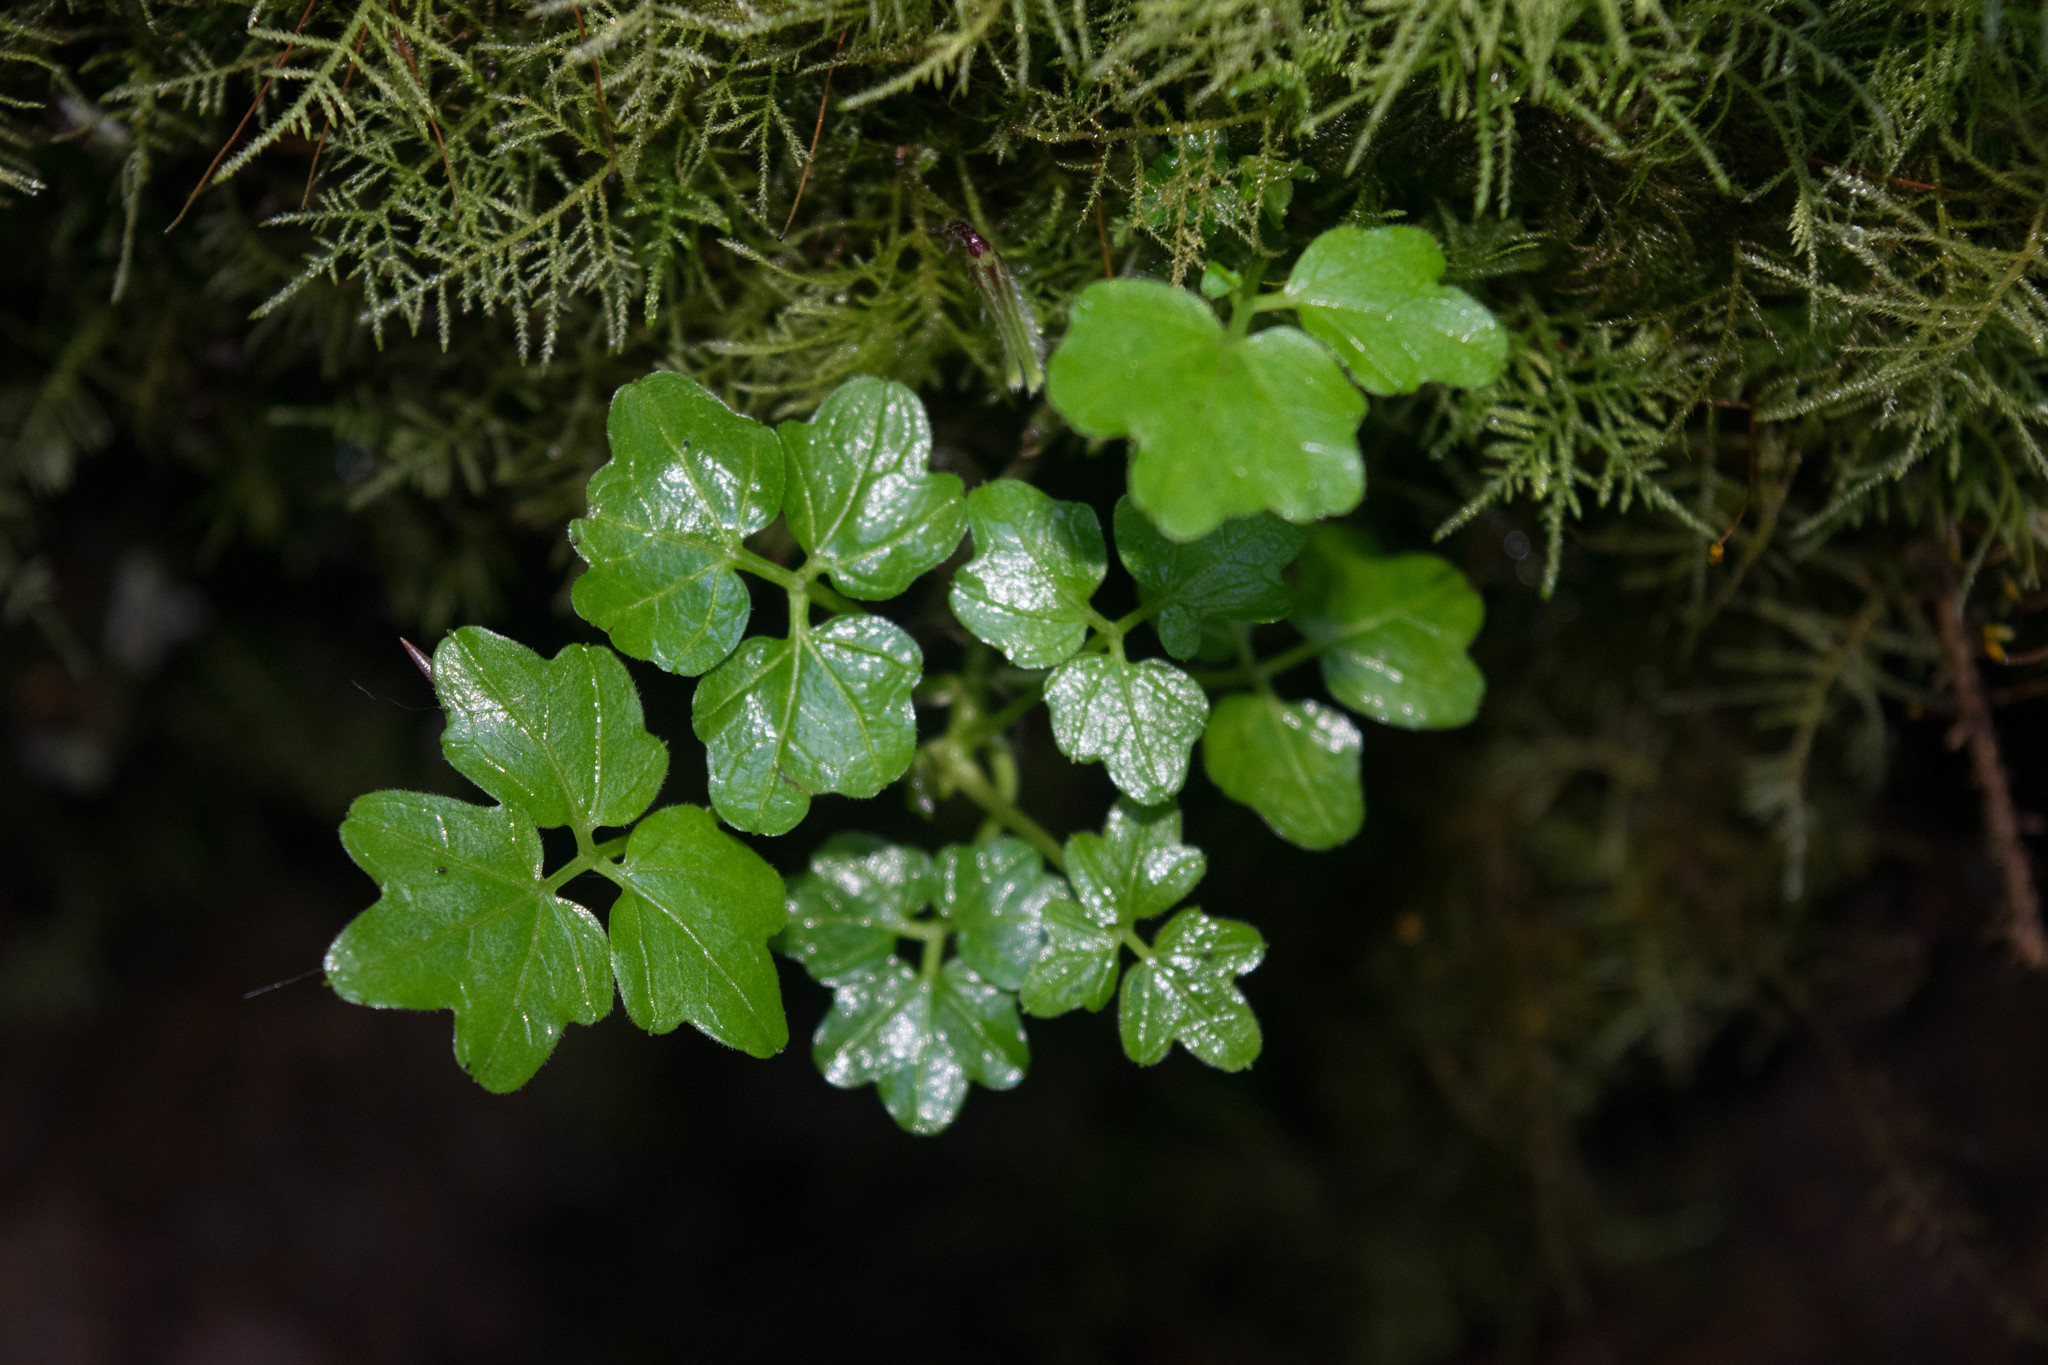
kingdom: Plantae
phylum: Tracheophyta
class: Magnoliopsida
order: Brassicales
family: Brassicaceae
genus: Cardamine
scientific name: Cardamine angulata
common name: Angled bittercress
